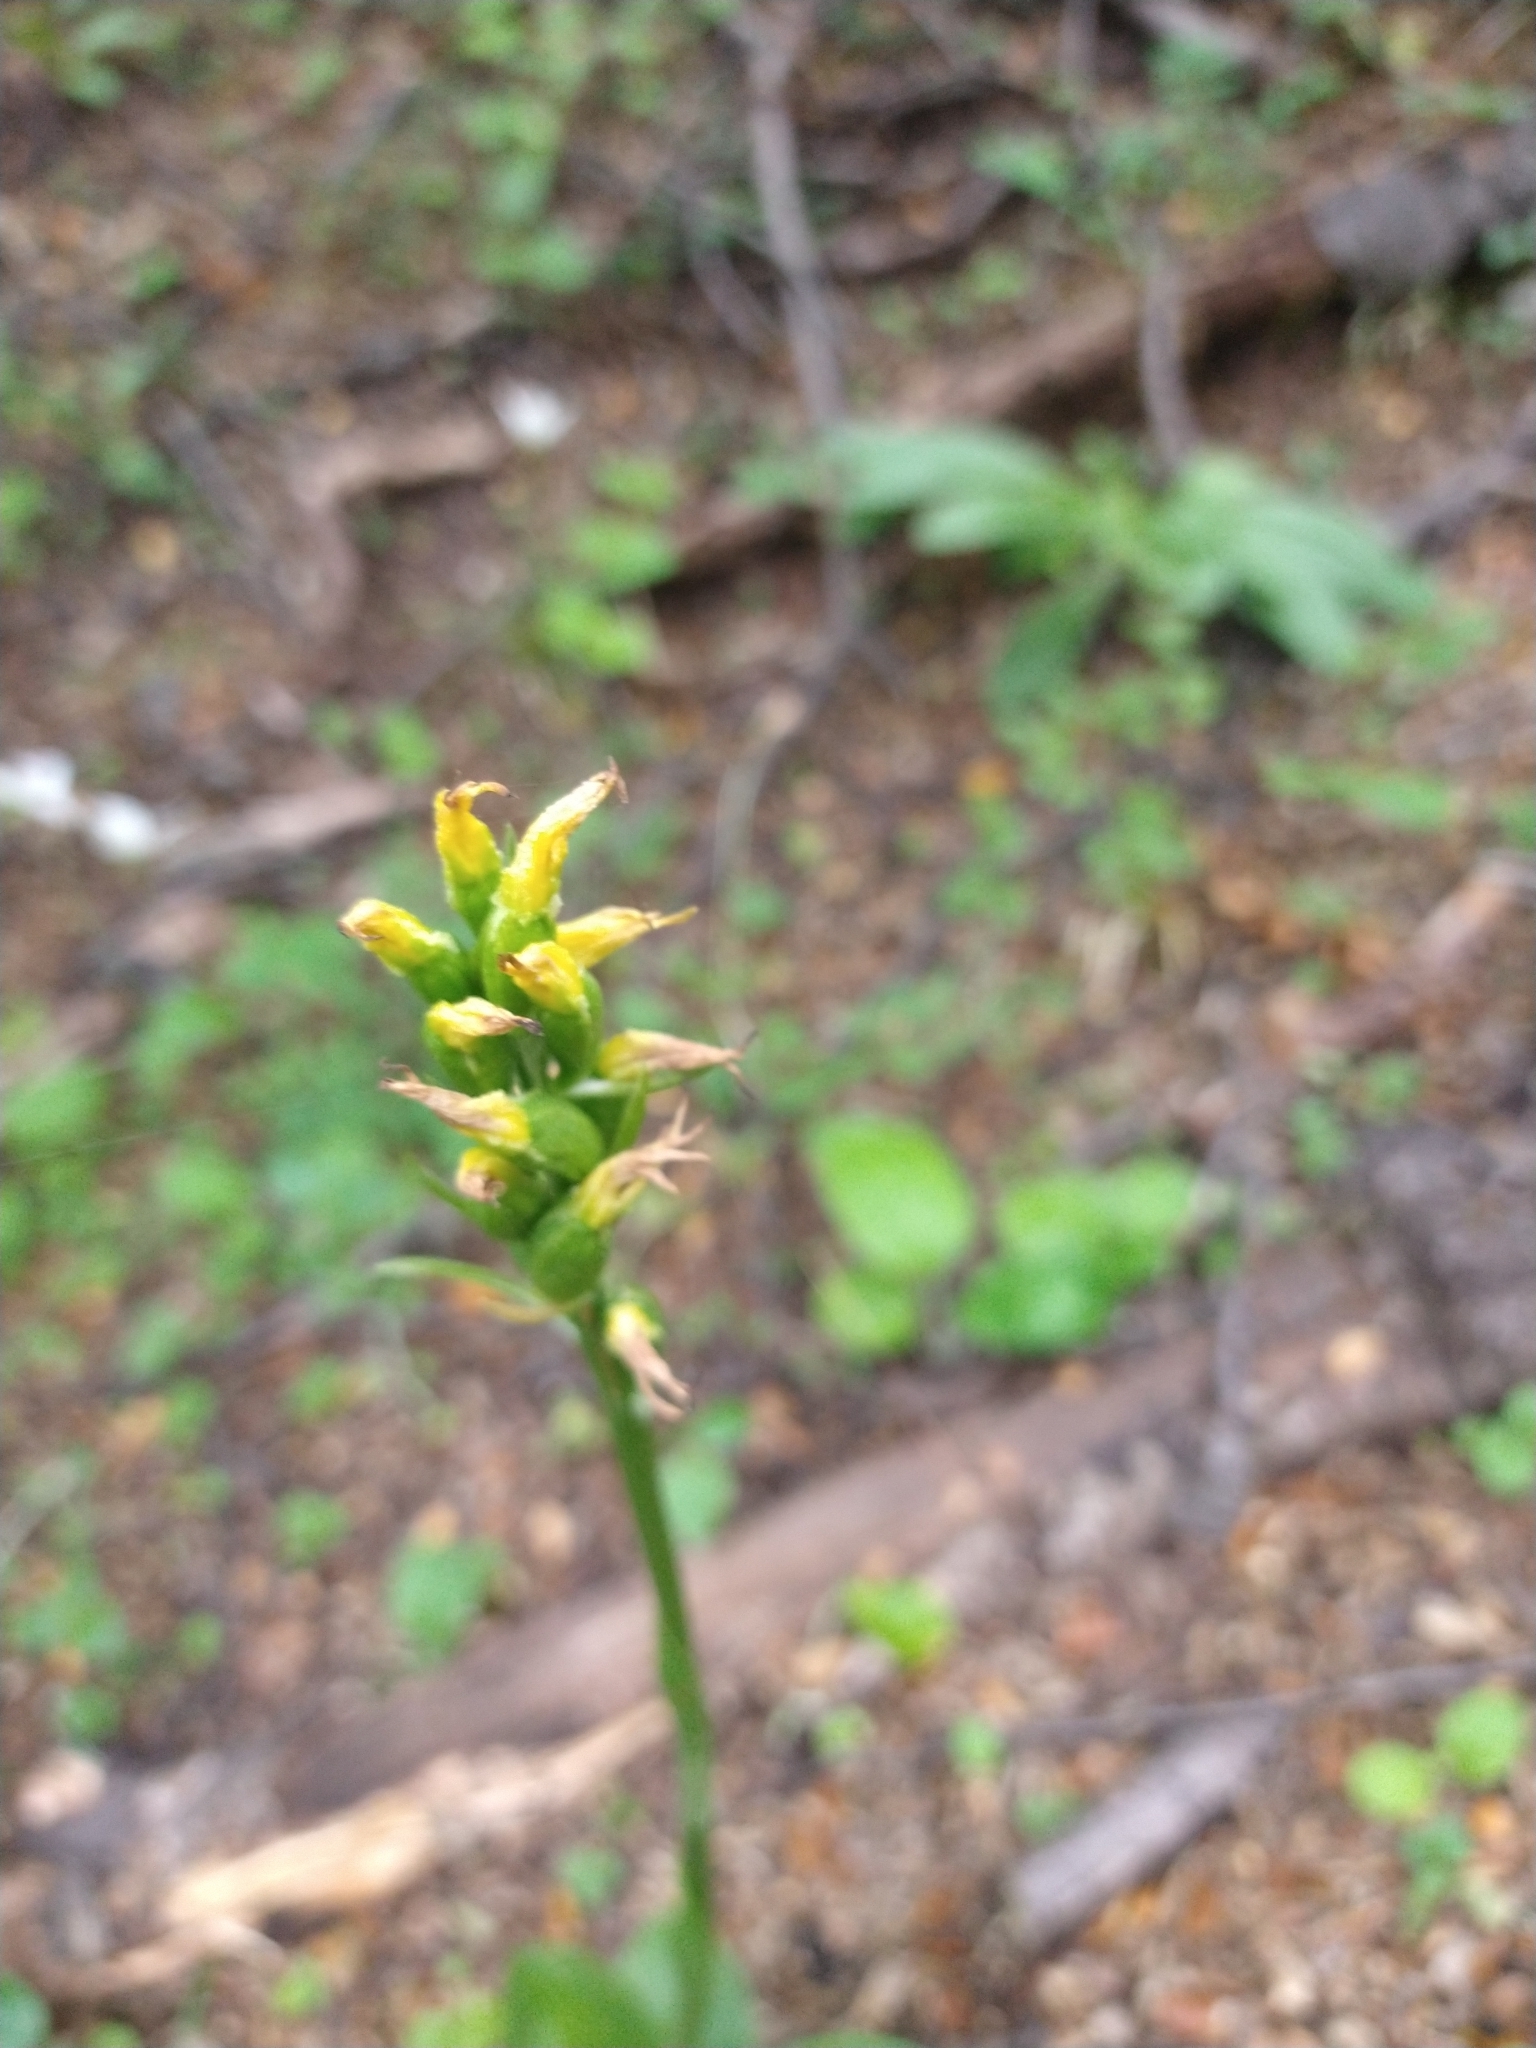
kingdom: Plantae
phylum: Tracheophyta
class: Liliopsida
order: Asparagales
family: Orchidaceae
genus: Gavilea
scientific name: Gavilea lutea
